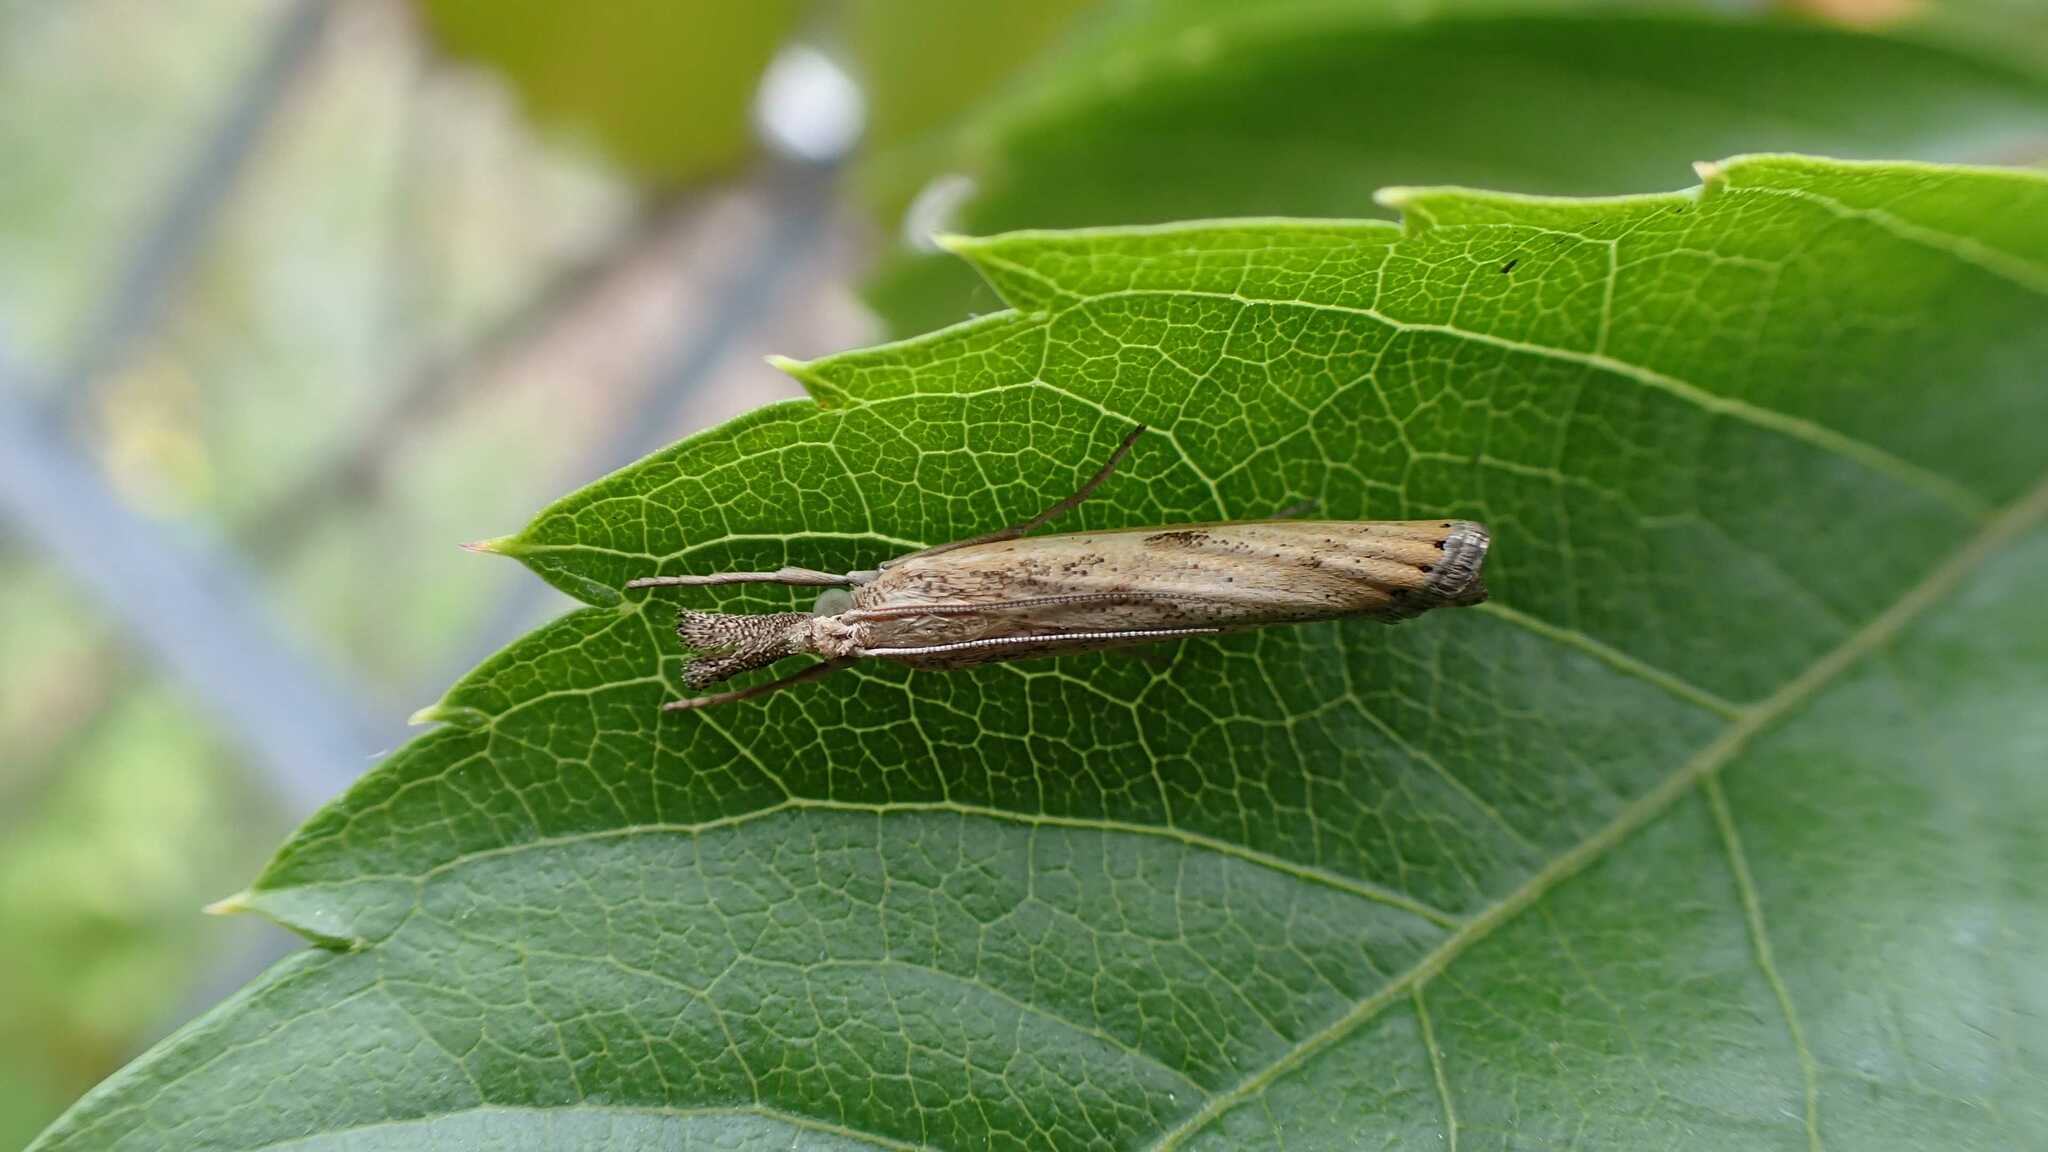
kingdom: Animalia
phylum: Arthropoda
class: Insecta
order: Lepidoptera
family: Crambidae
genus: Agriphila
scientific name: Agriphila inquinatella
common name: Barred grass-veneer
